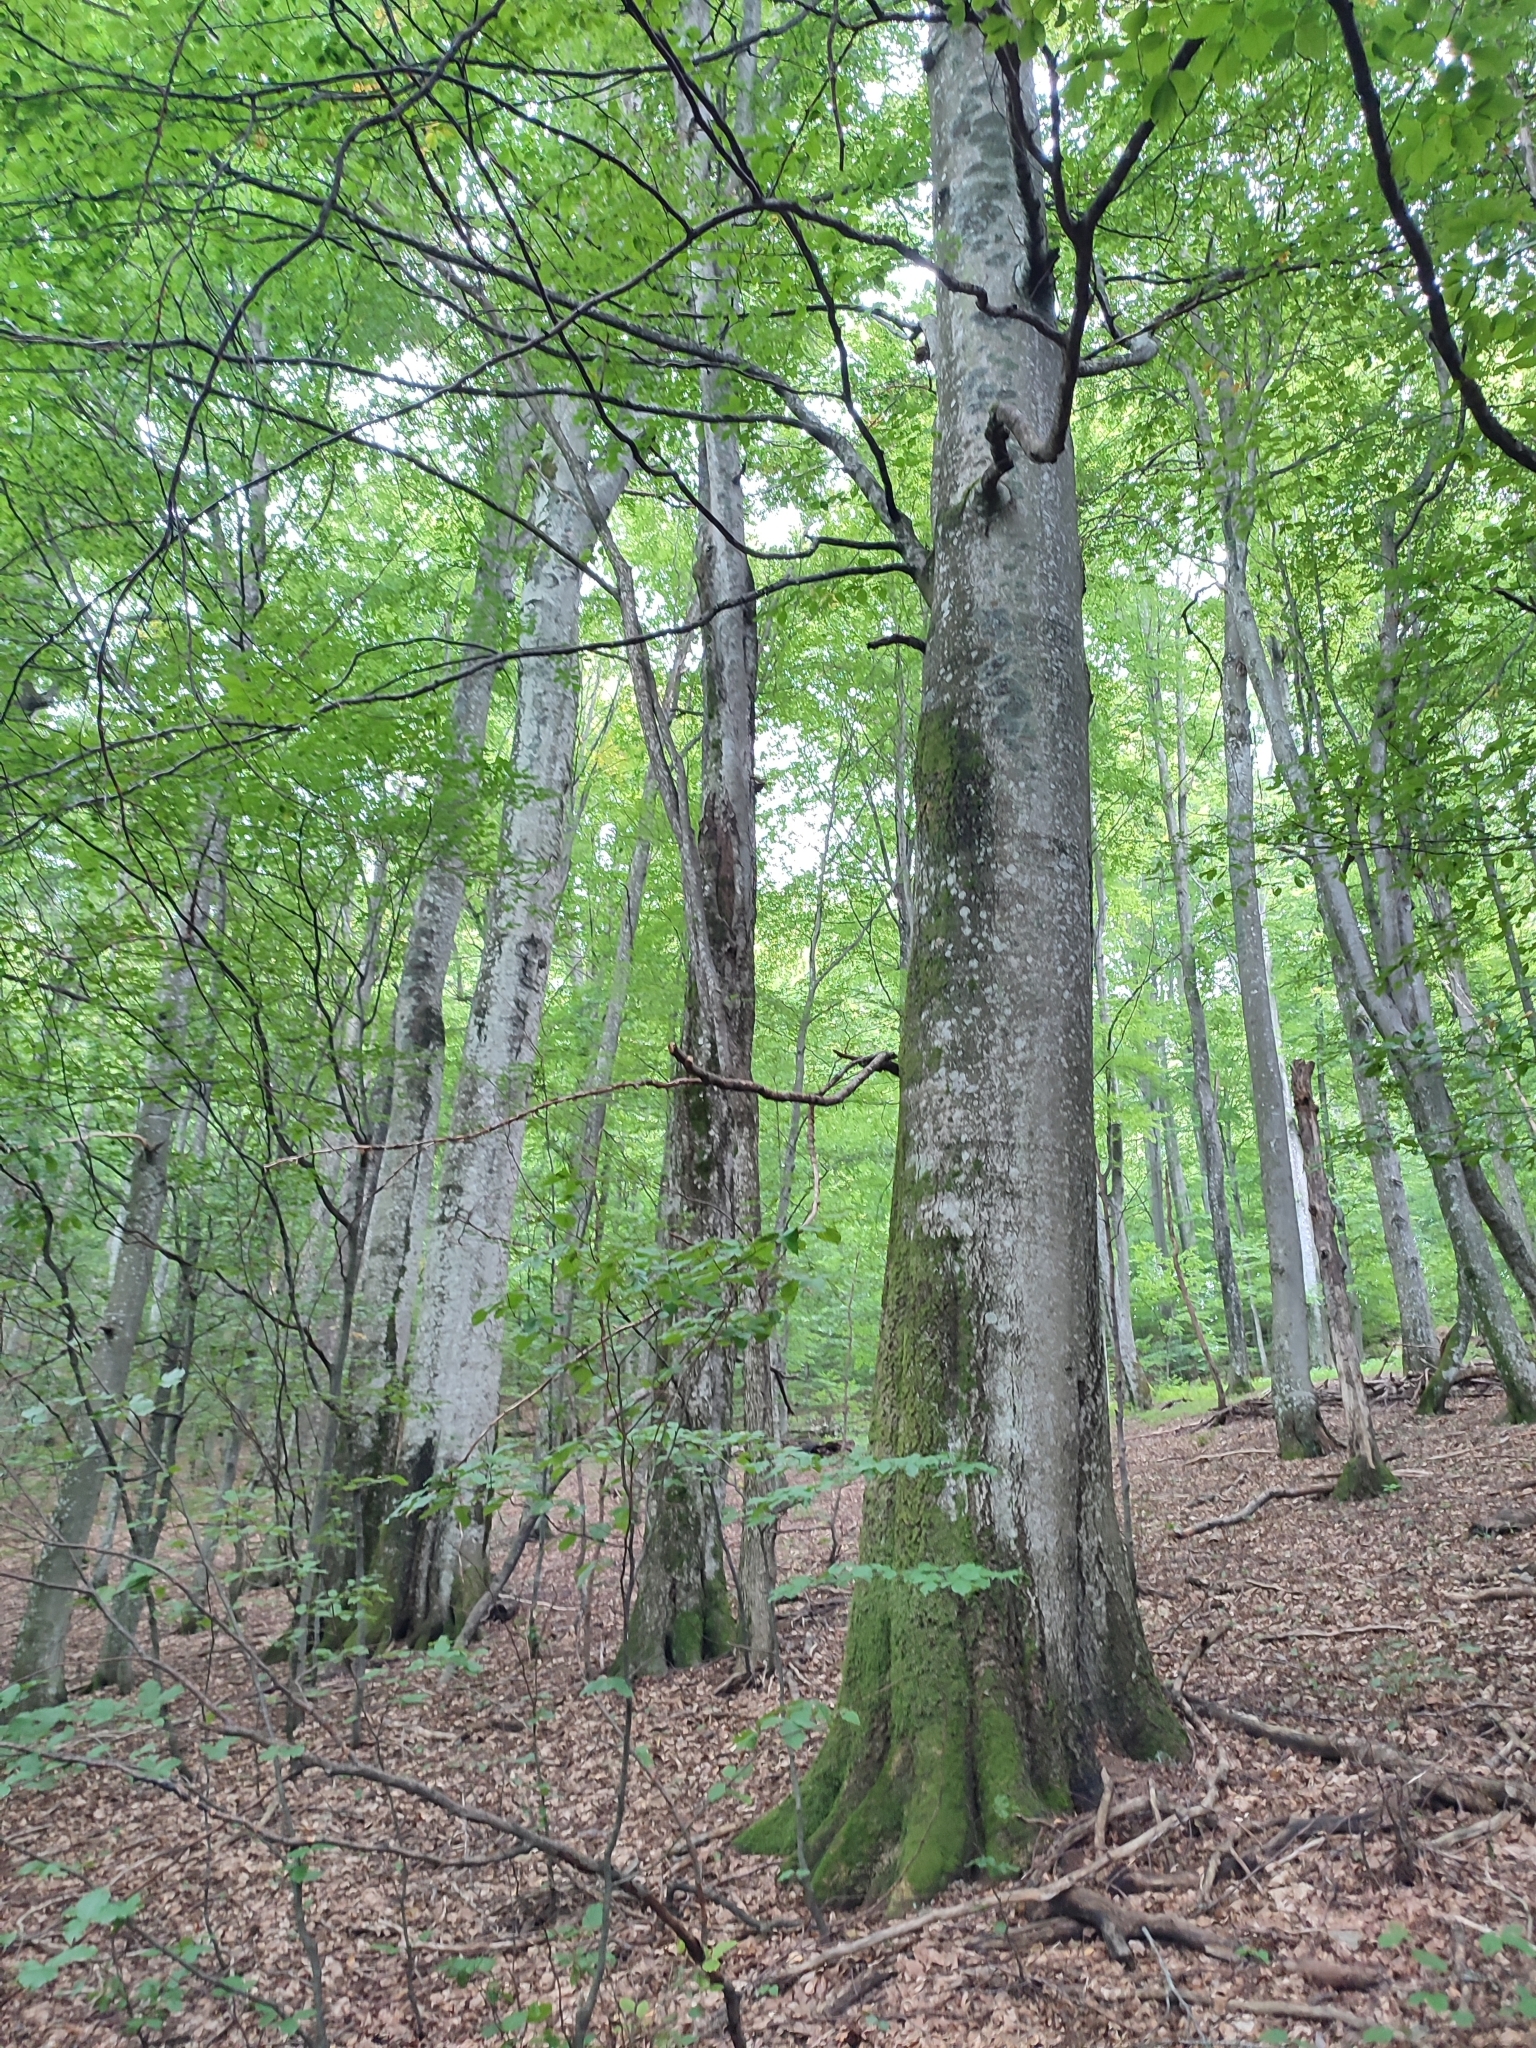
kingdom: Plantae
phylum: Tracheophyta
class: Magnoliopsida
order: Fagales
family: Fagaceae
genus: Fagus
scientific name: Fagus sylvatica
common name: Beech
